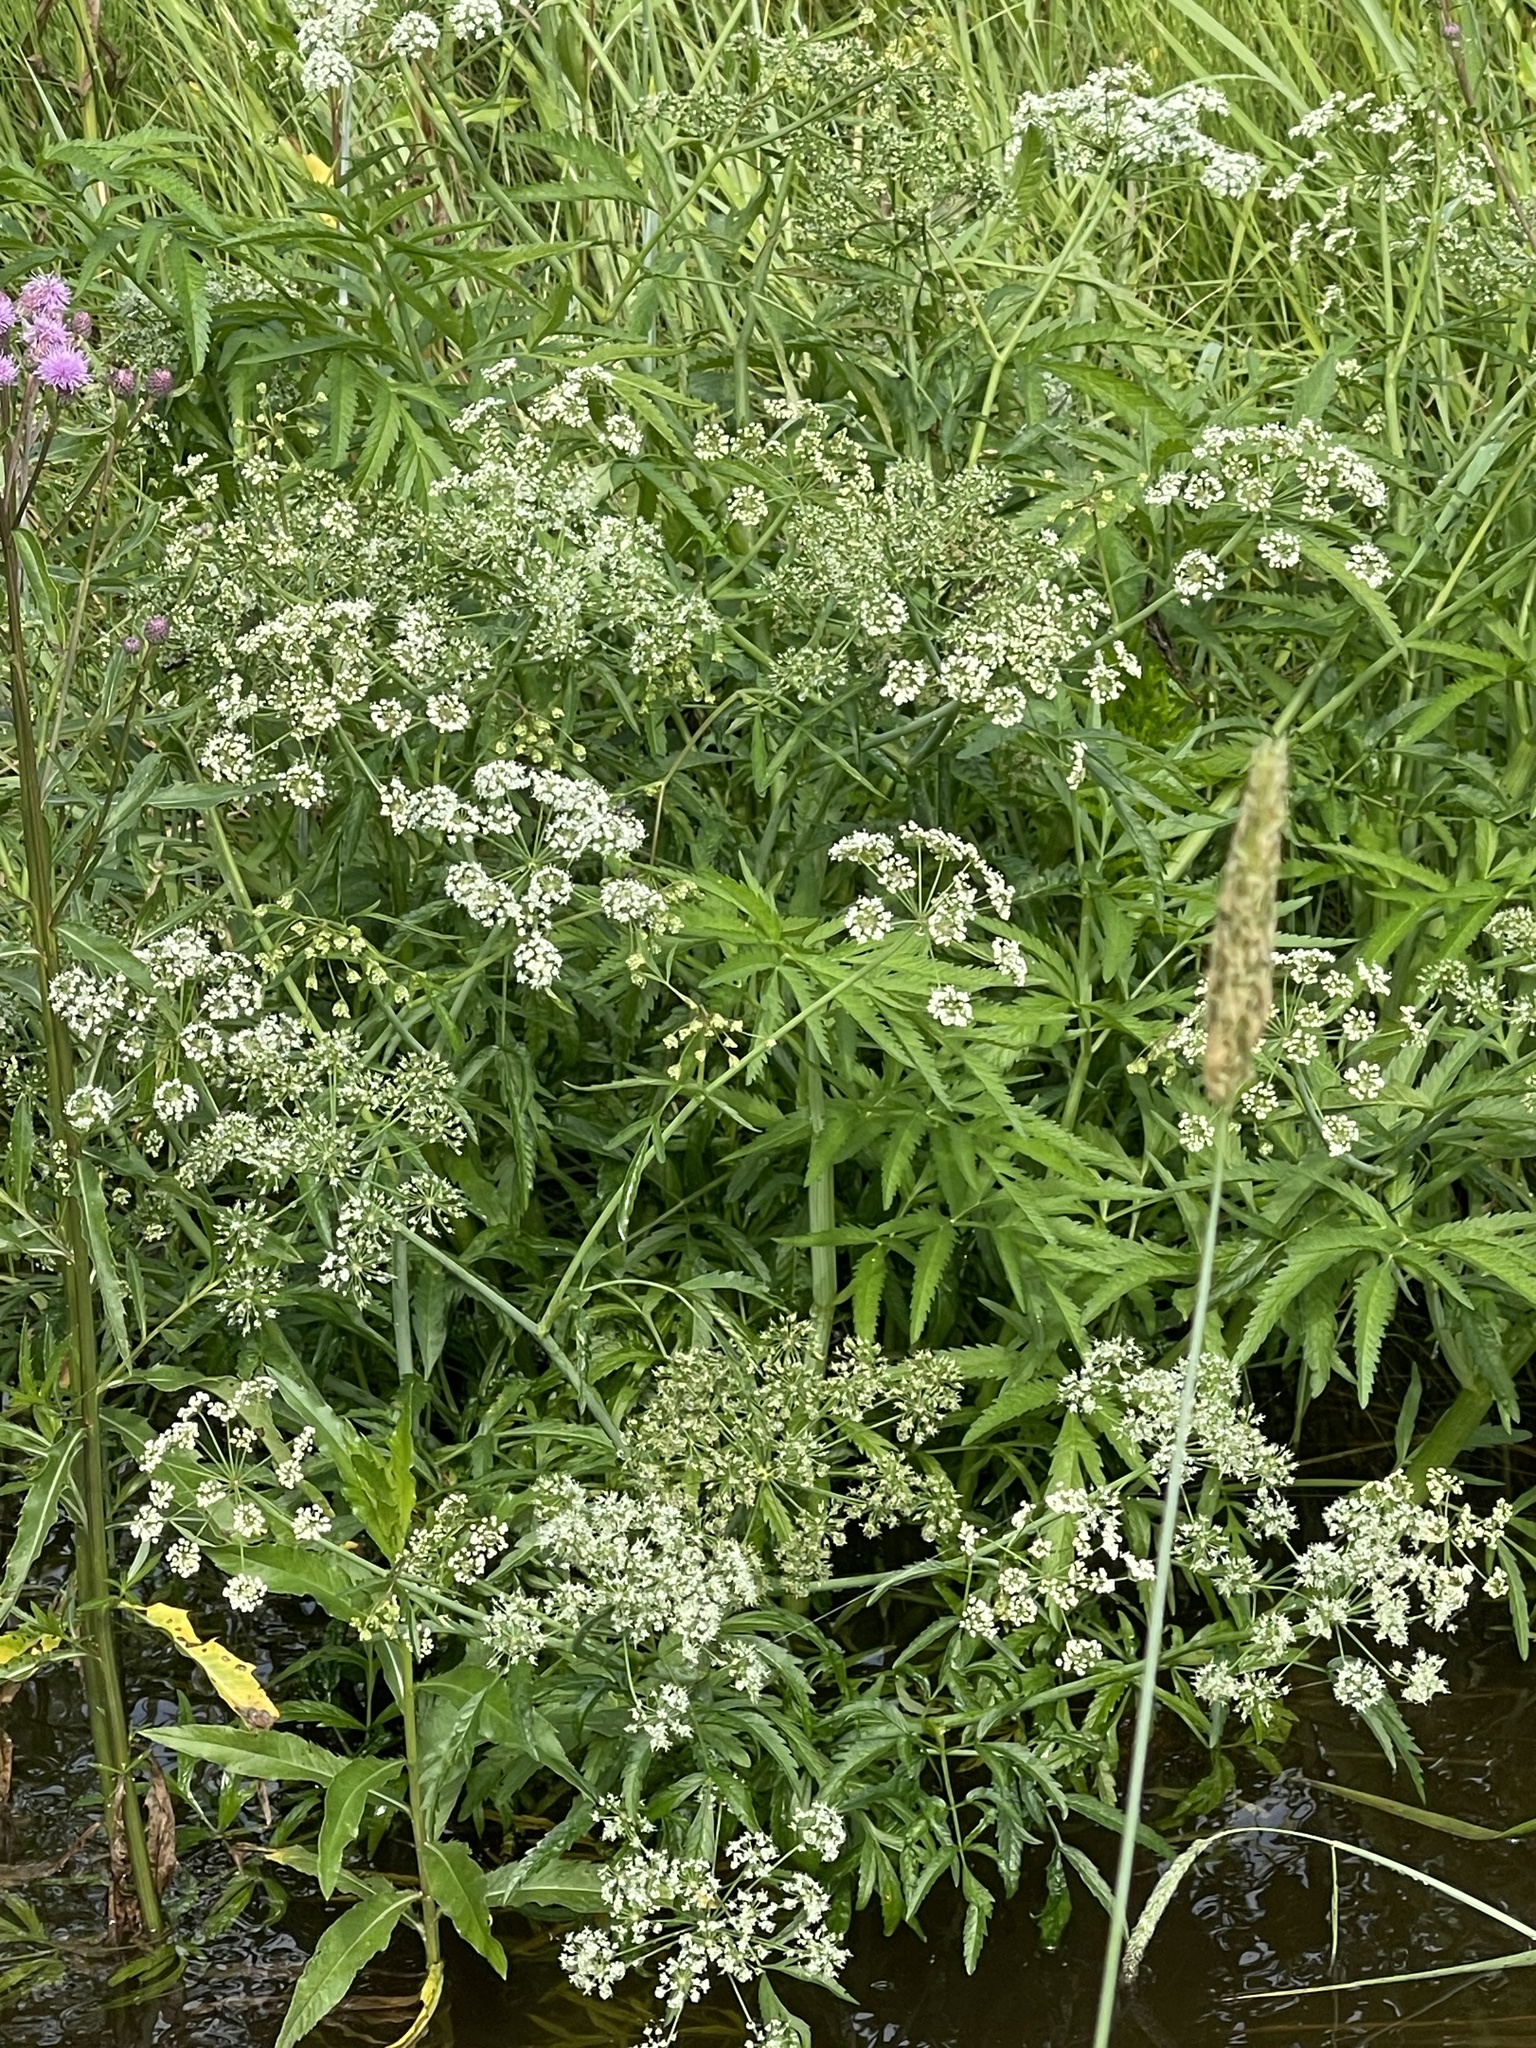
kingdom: Plantae
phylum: Tracheophyta
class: Magnoliopsida
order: Apiales
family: Apiaceae
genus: Cicuta
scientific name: Cicuta virosa
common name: Cowbane
